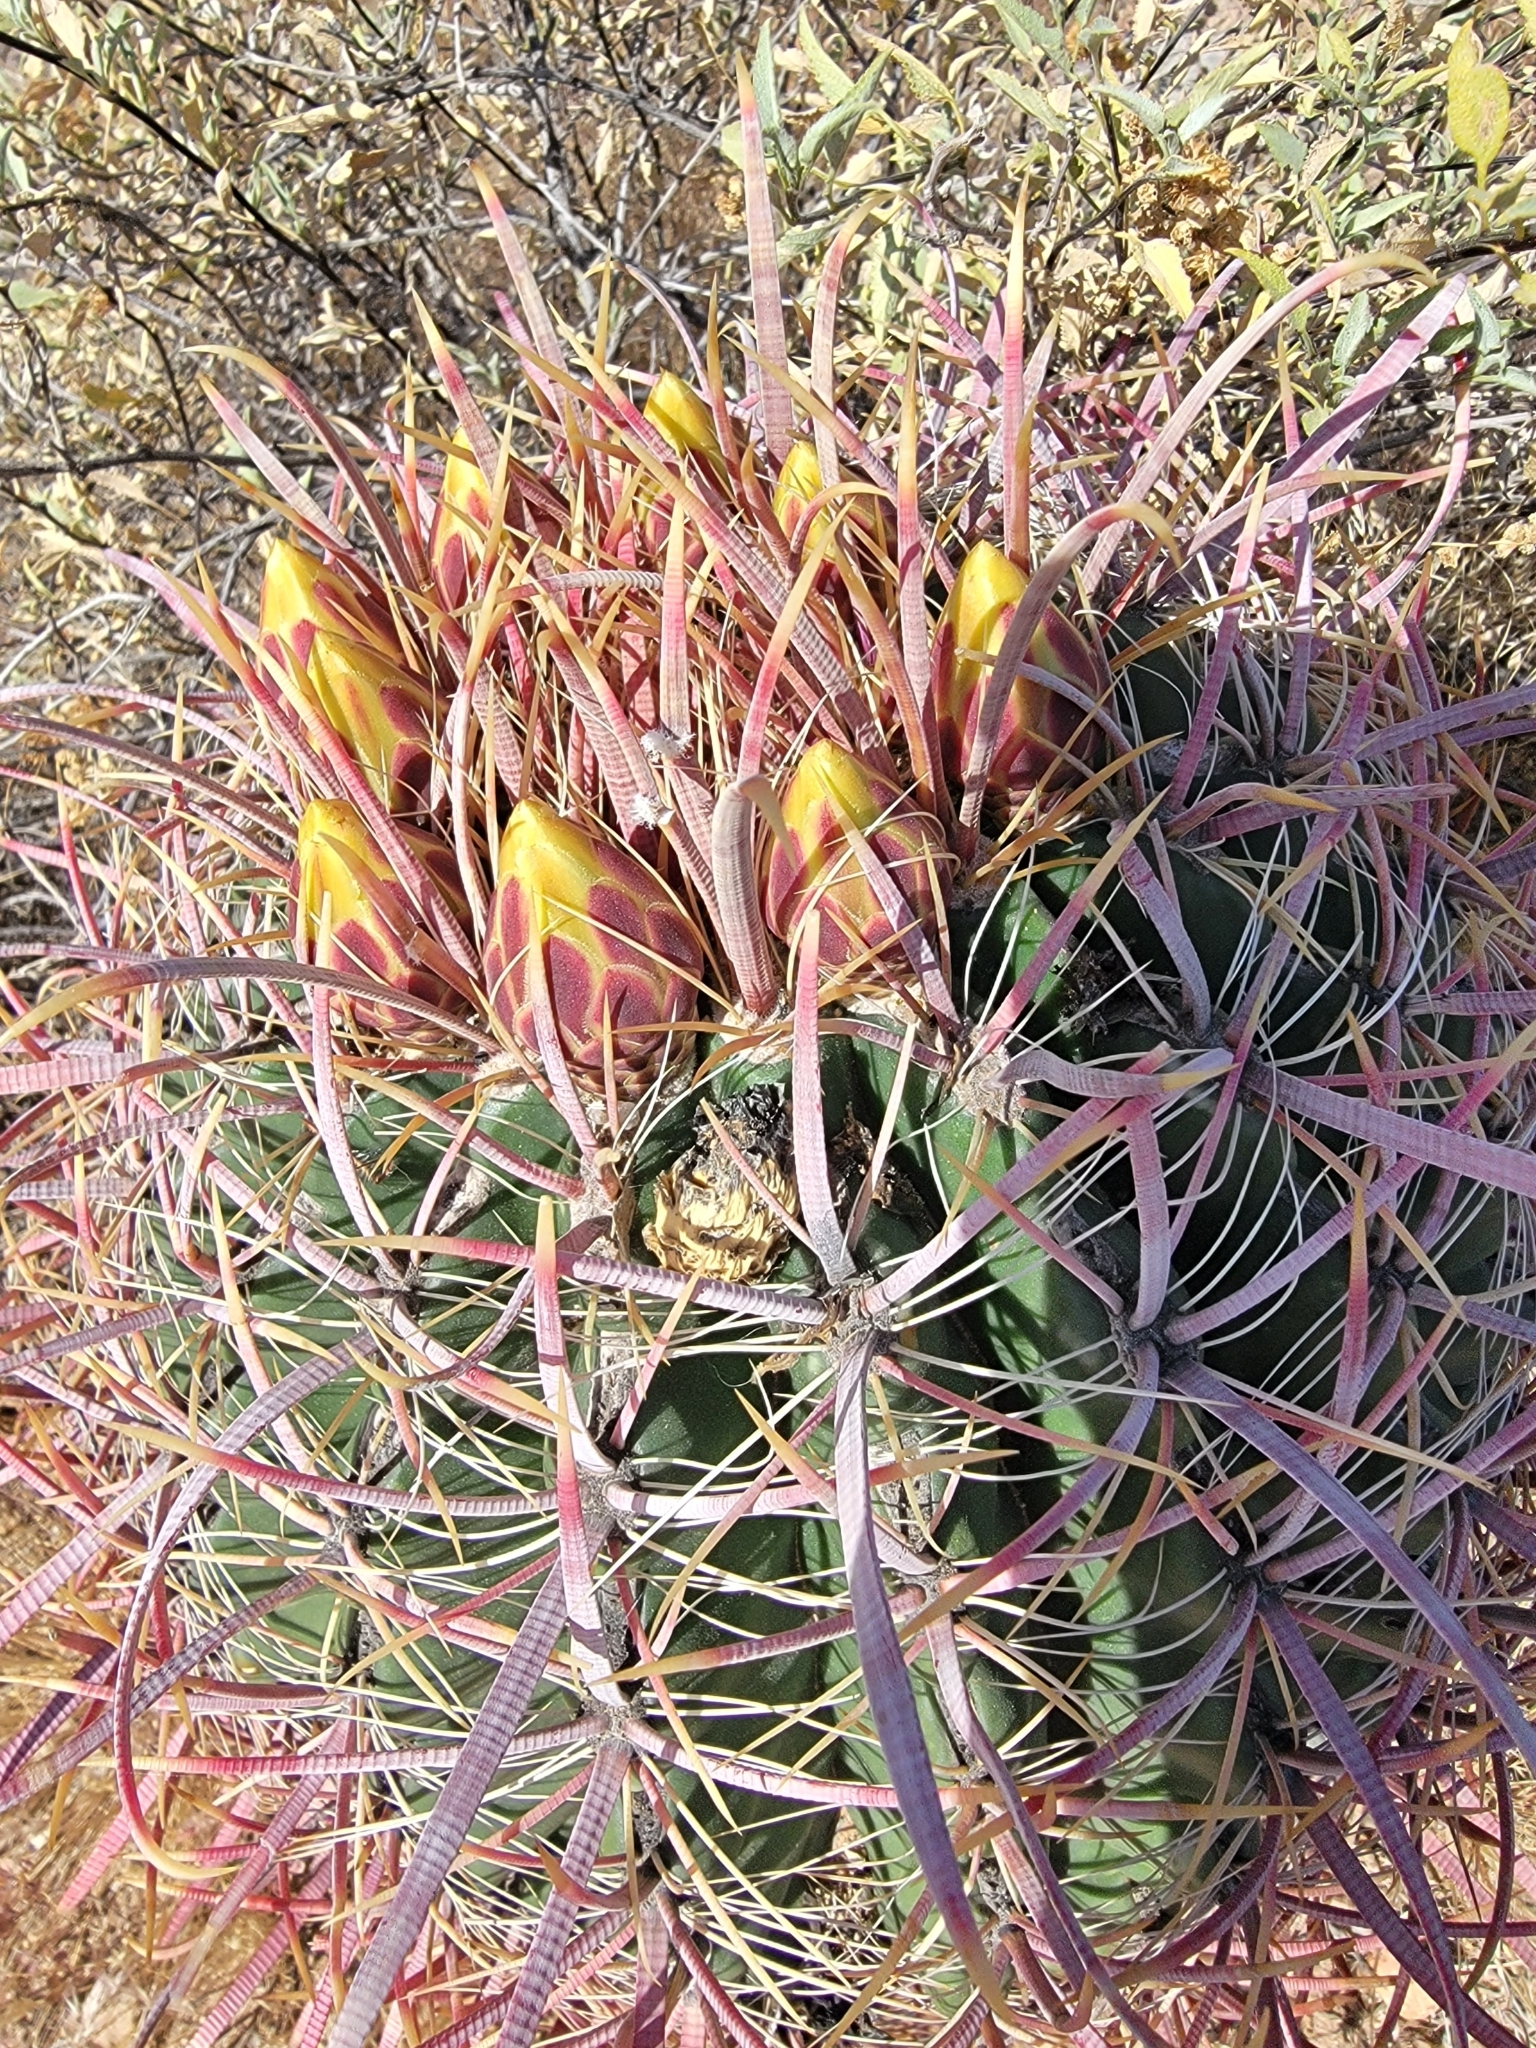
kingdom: Plantae
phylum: Tracheophyta
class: Magnoliopsida
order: Caryophyllales
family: Cactaceae
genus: Ferocactus
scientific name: Ferocactus cylindraceus
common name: California barrel cactus
